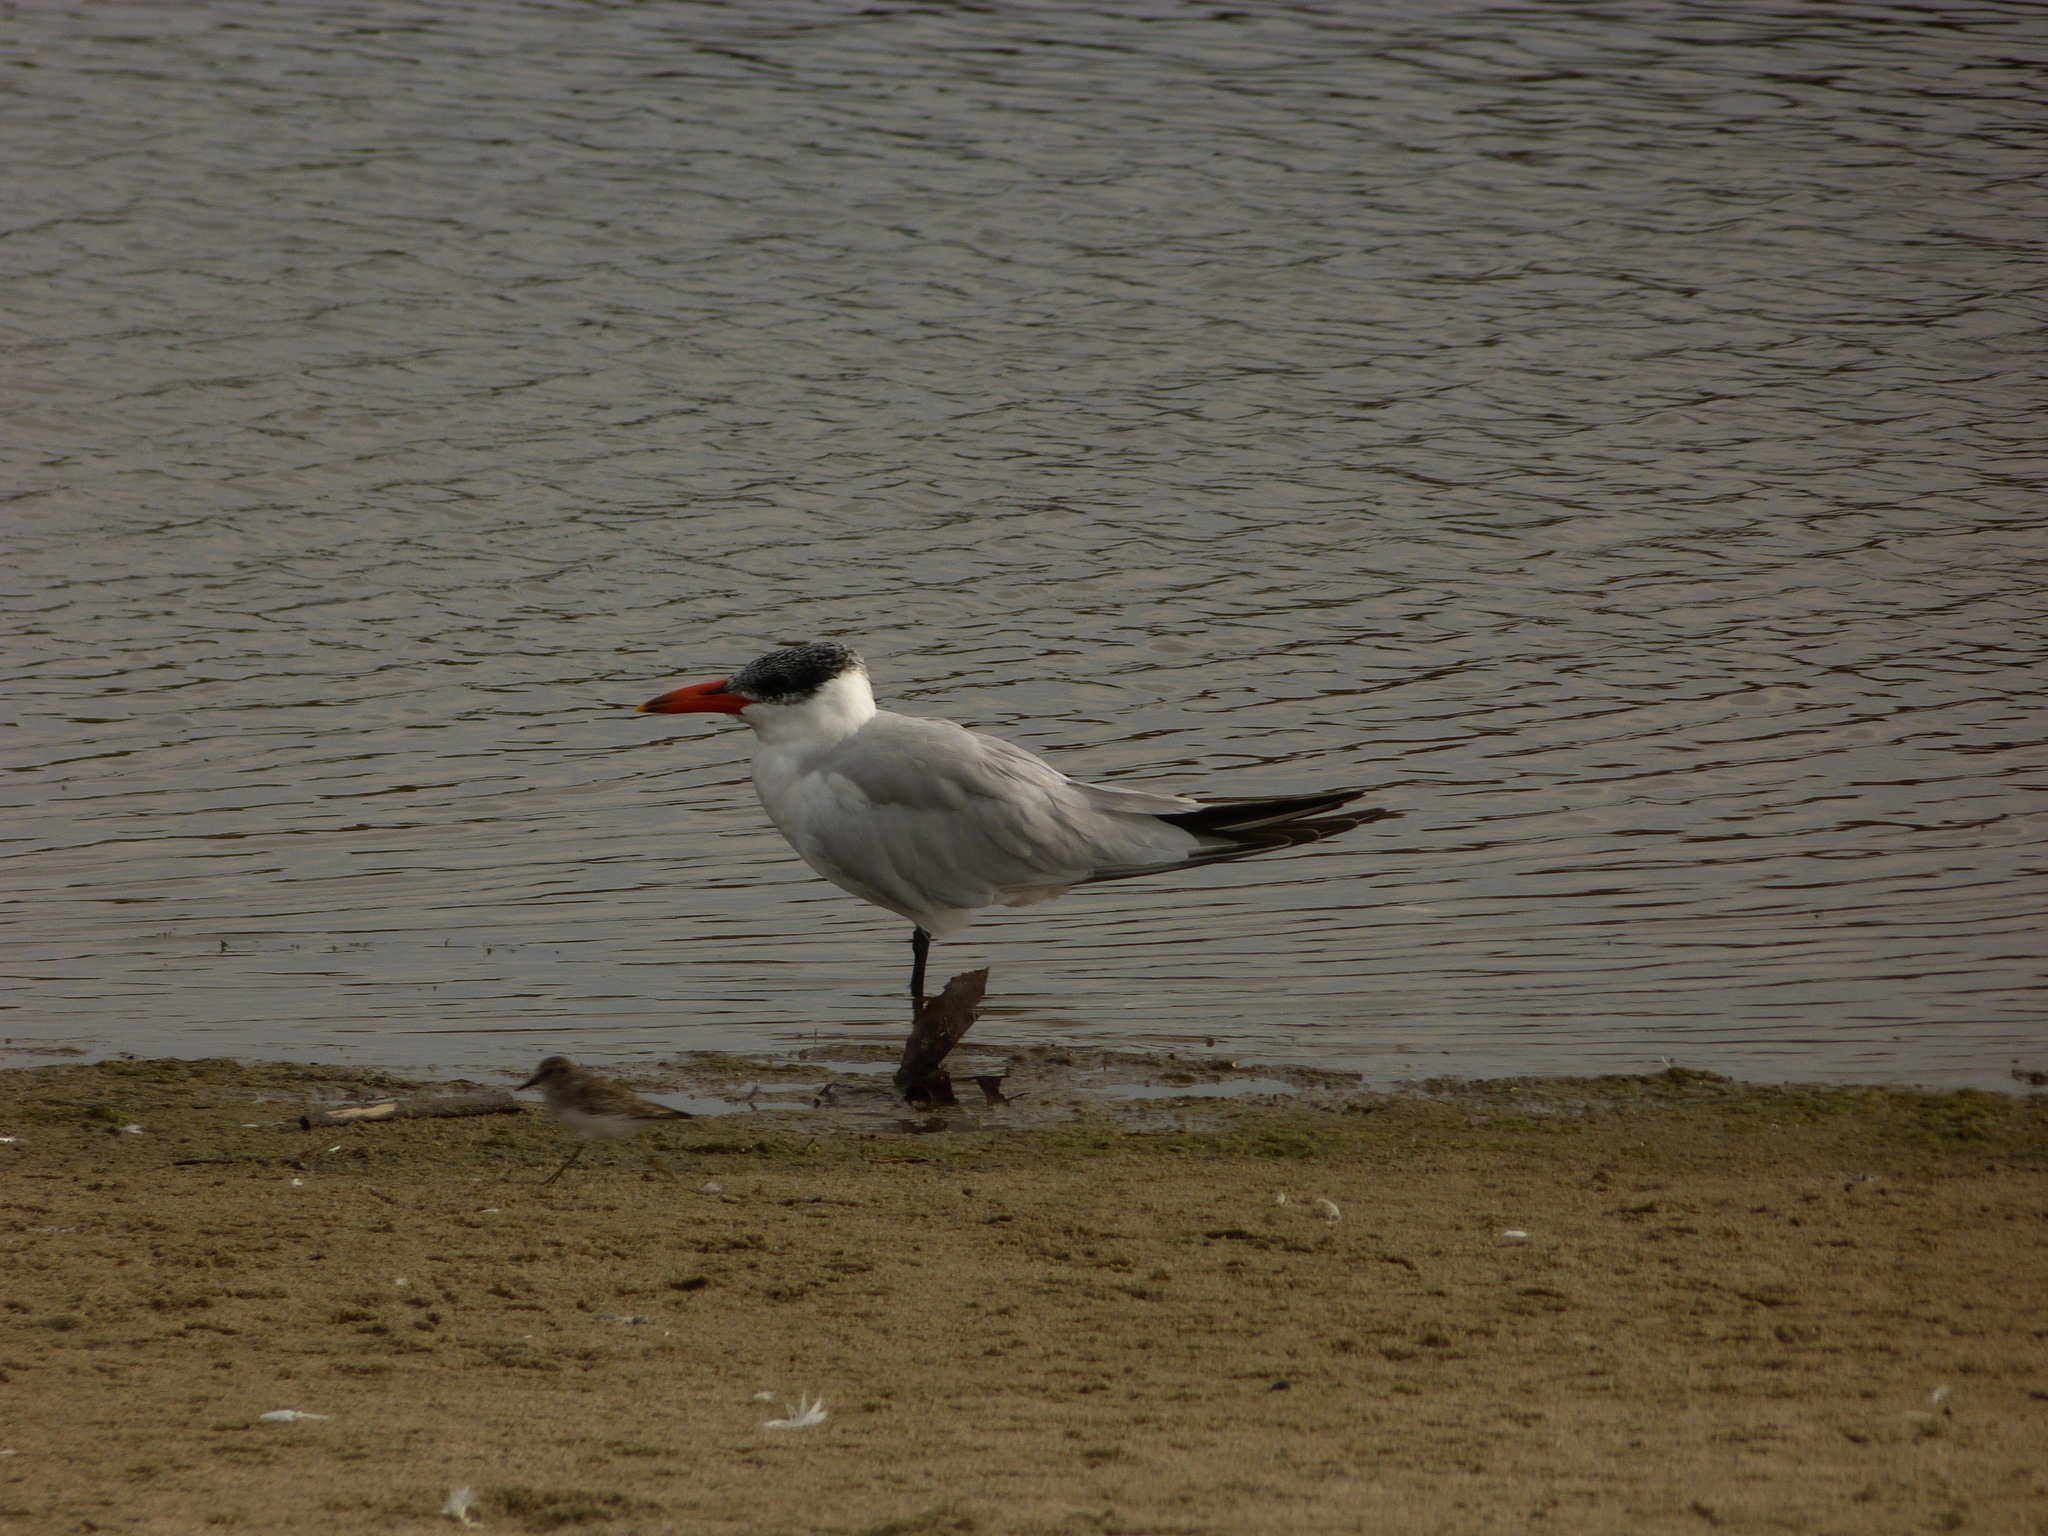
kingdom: Animalia
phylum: Chordata
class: Aves
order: Charadriiformes
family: Laridae
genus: Hydroprogne
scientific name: Hydroprogne caspia
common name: Caspian tern
